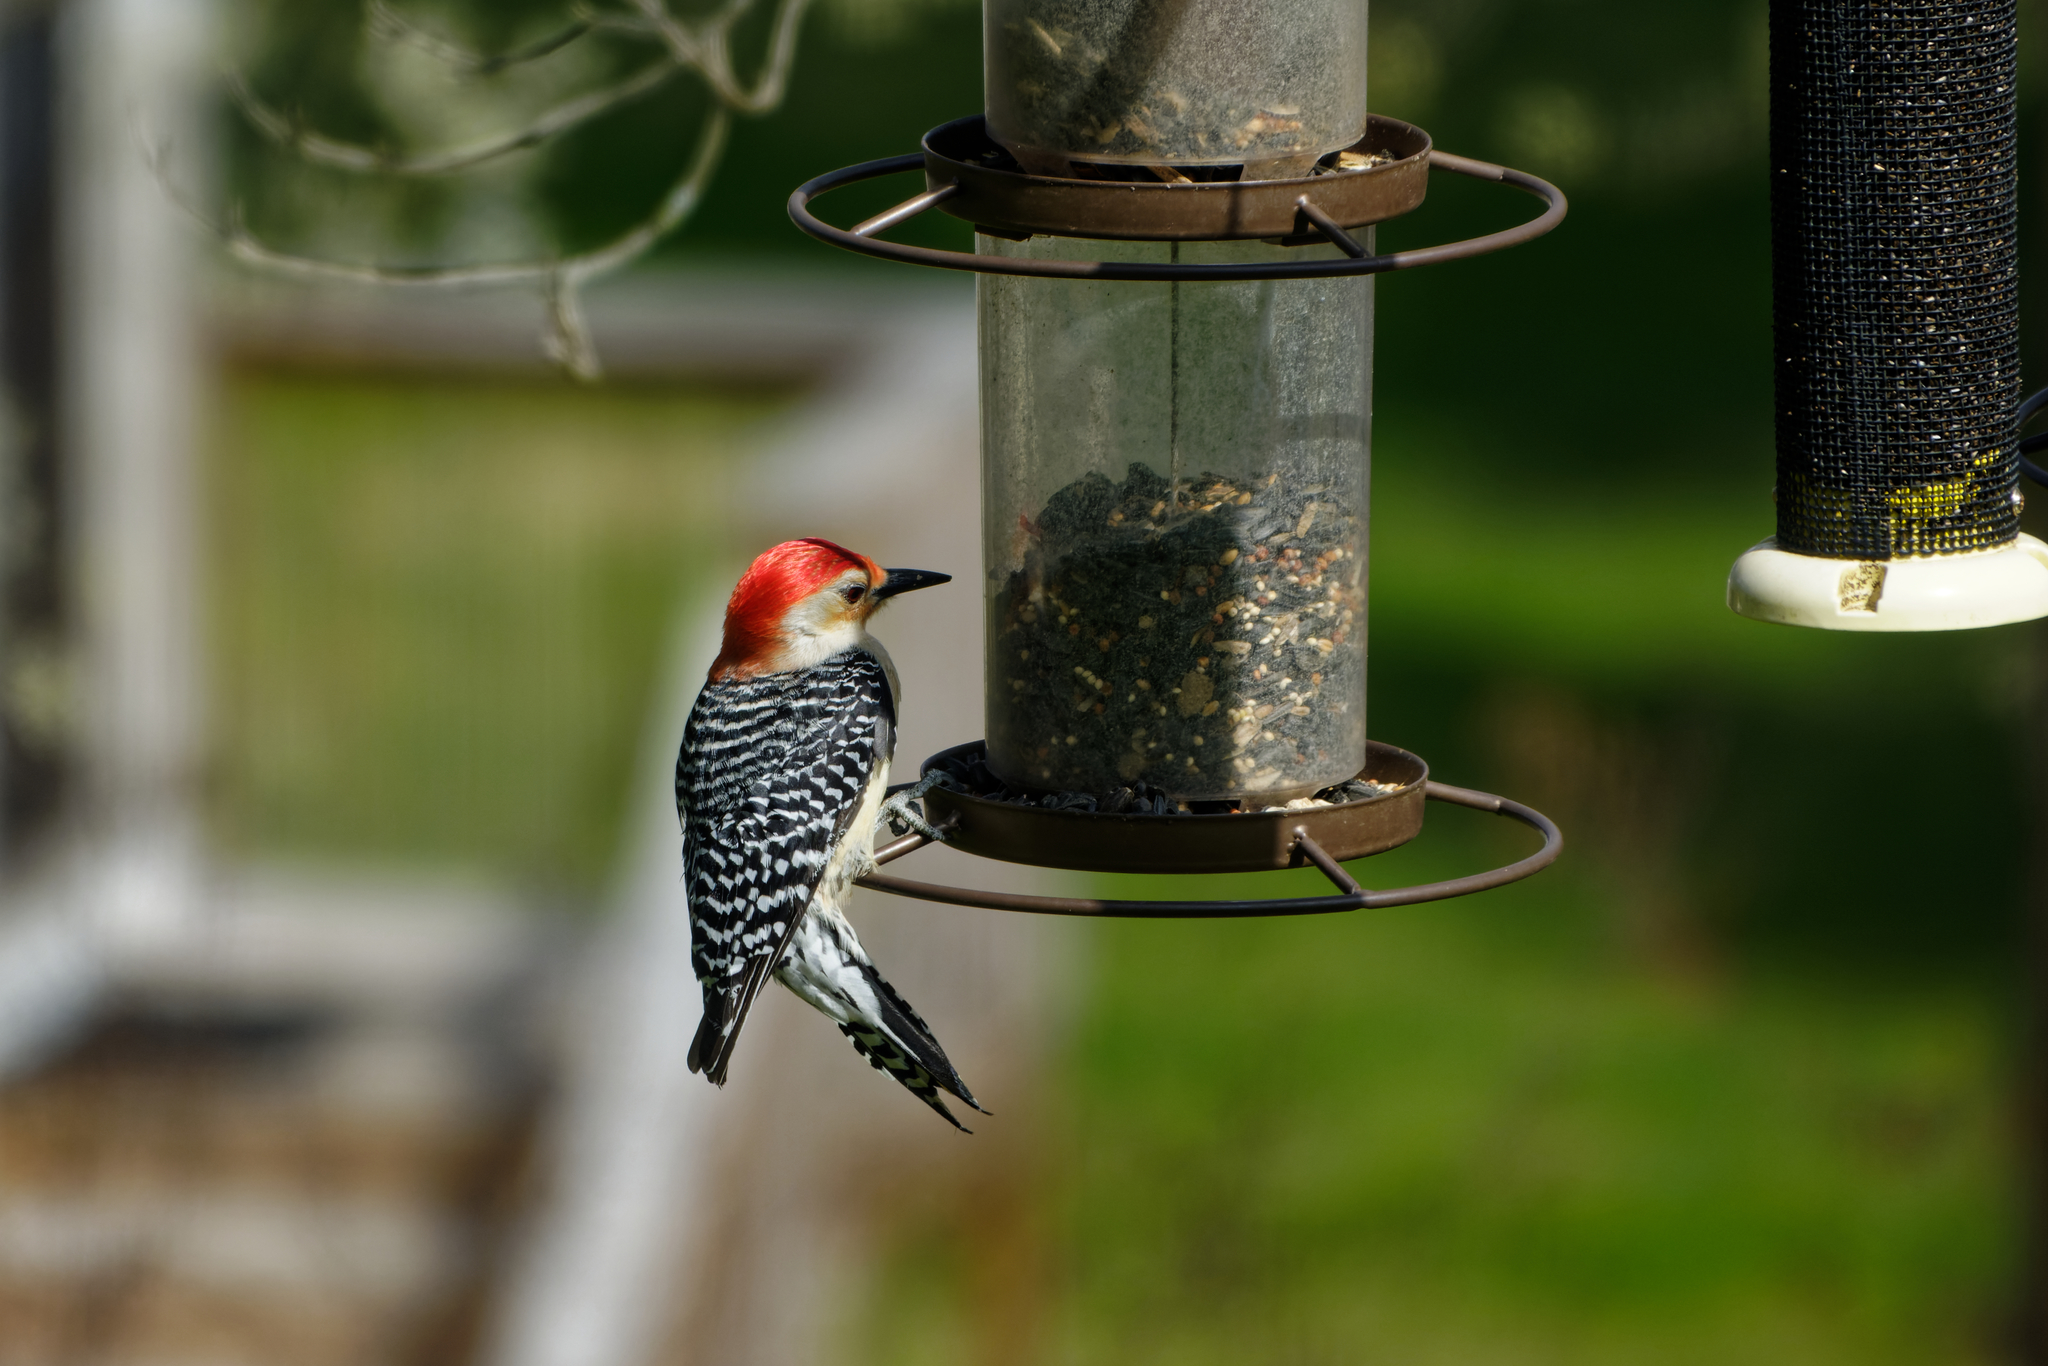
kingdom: Animalia
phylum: Chordata
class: Aves
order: Piciformes
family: Picidae
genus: Melanerpes
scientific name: Melanerpes carolinus
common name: Red-bellied woodpecker
